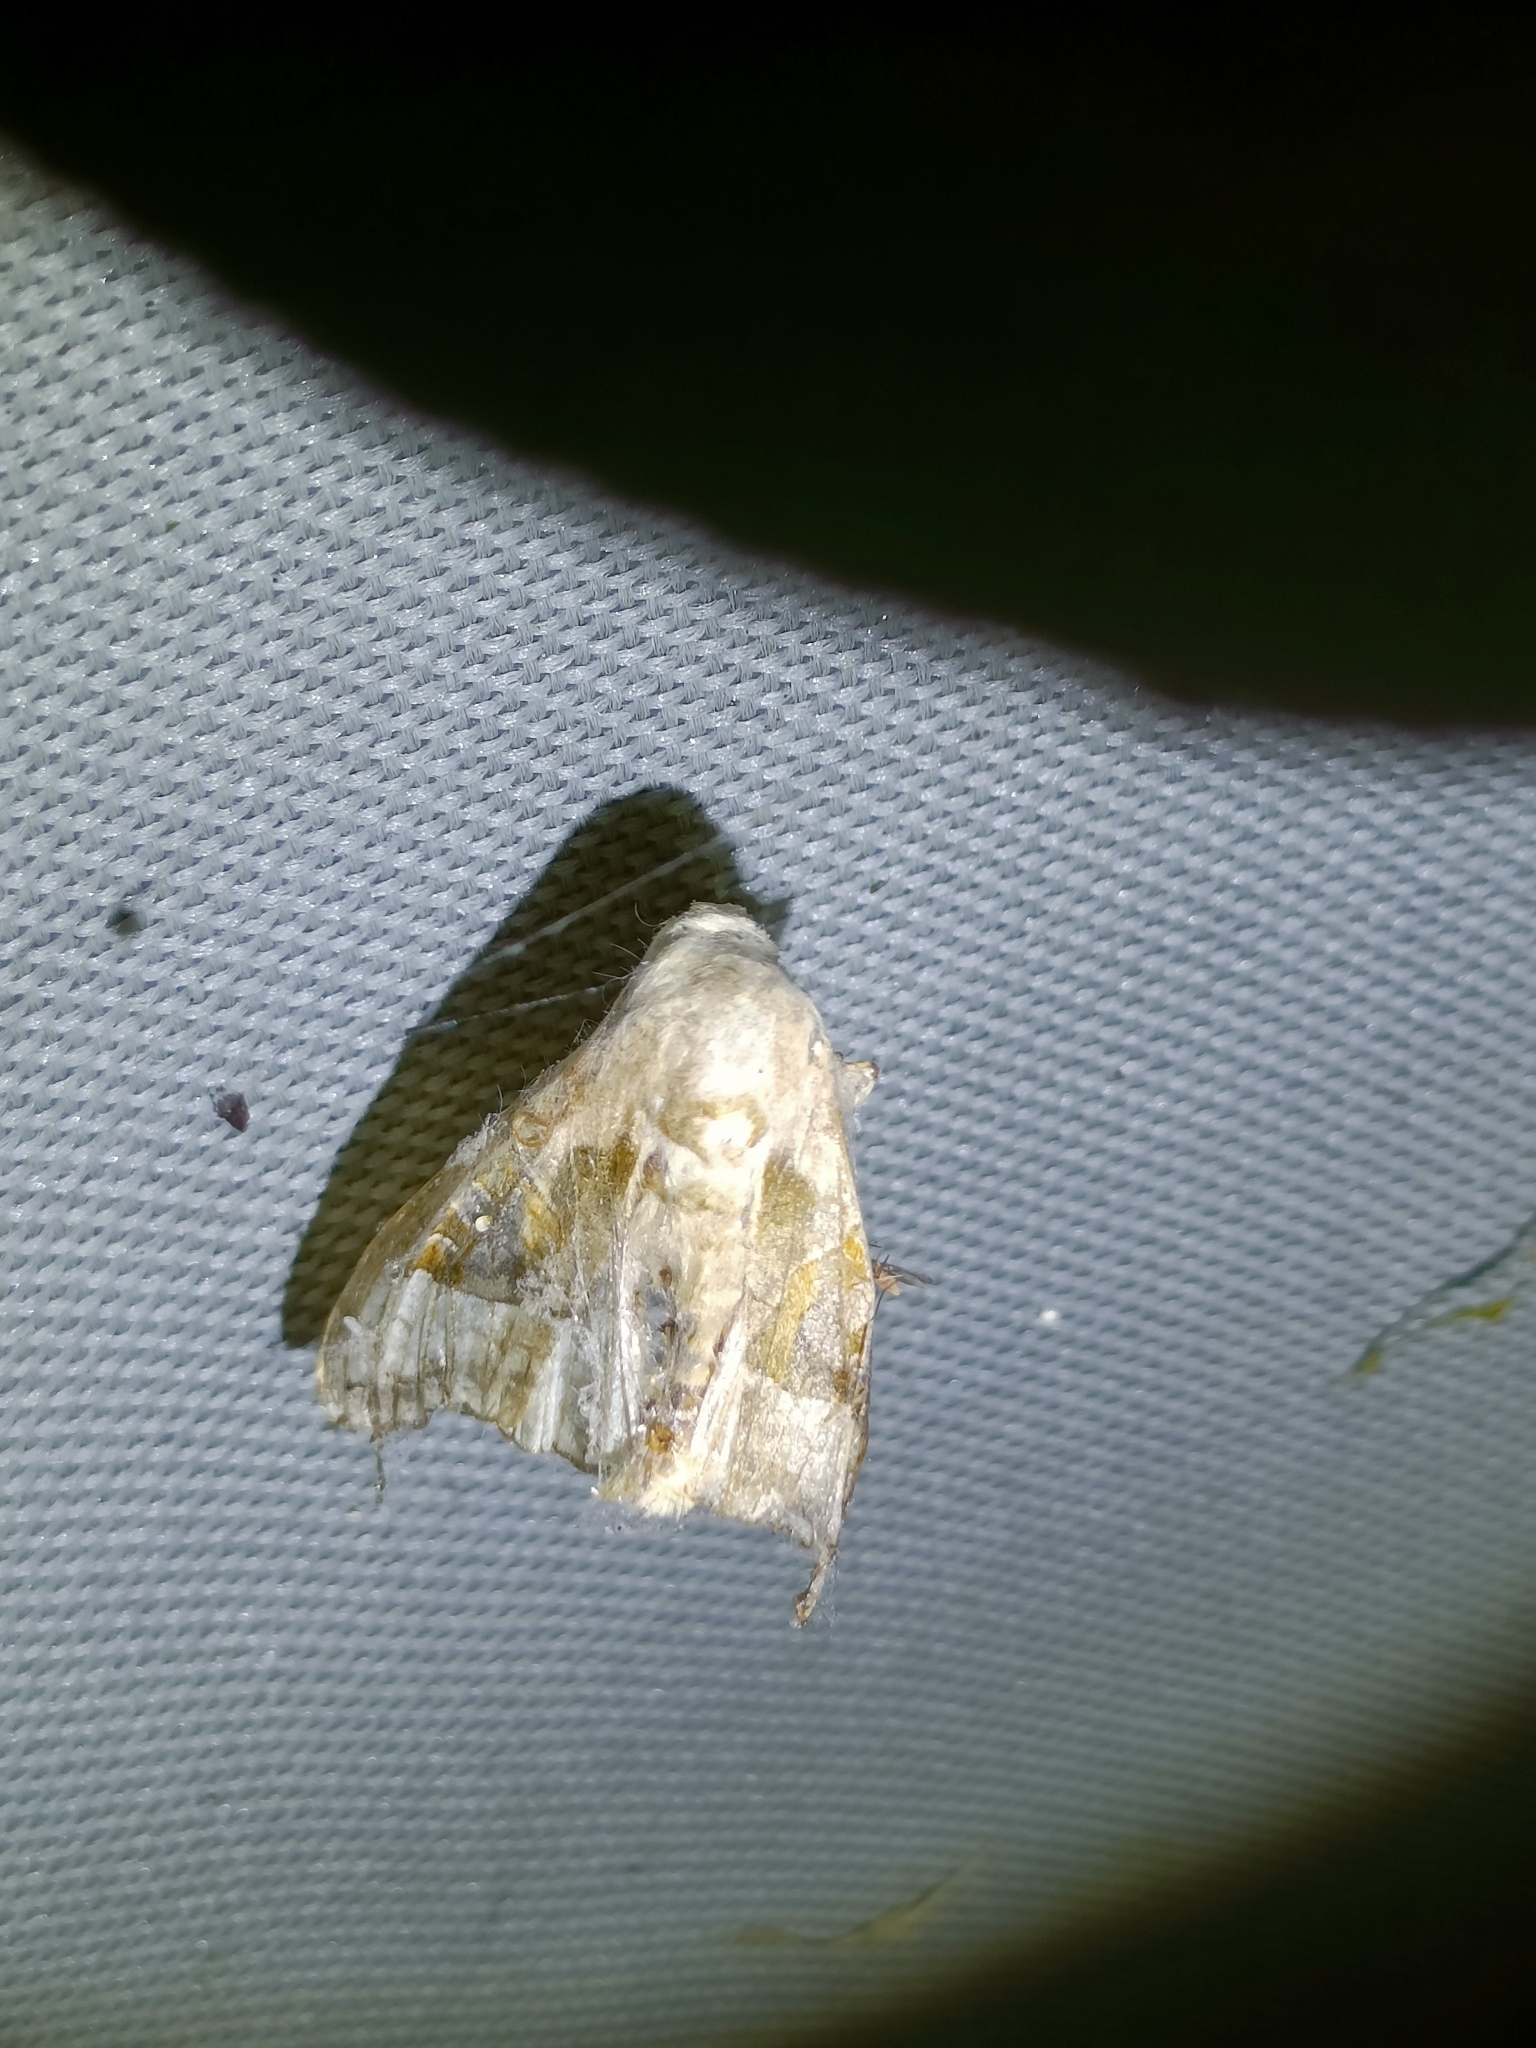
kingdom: Animalia
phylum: Arthropoda
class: Insecta
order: Lepidoptera
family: Noctuidae
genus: Phlogophora
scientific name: Phlogophora meticulosa
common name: Angle shades
